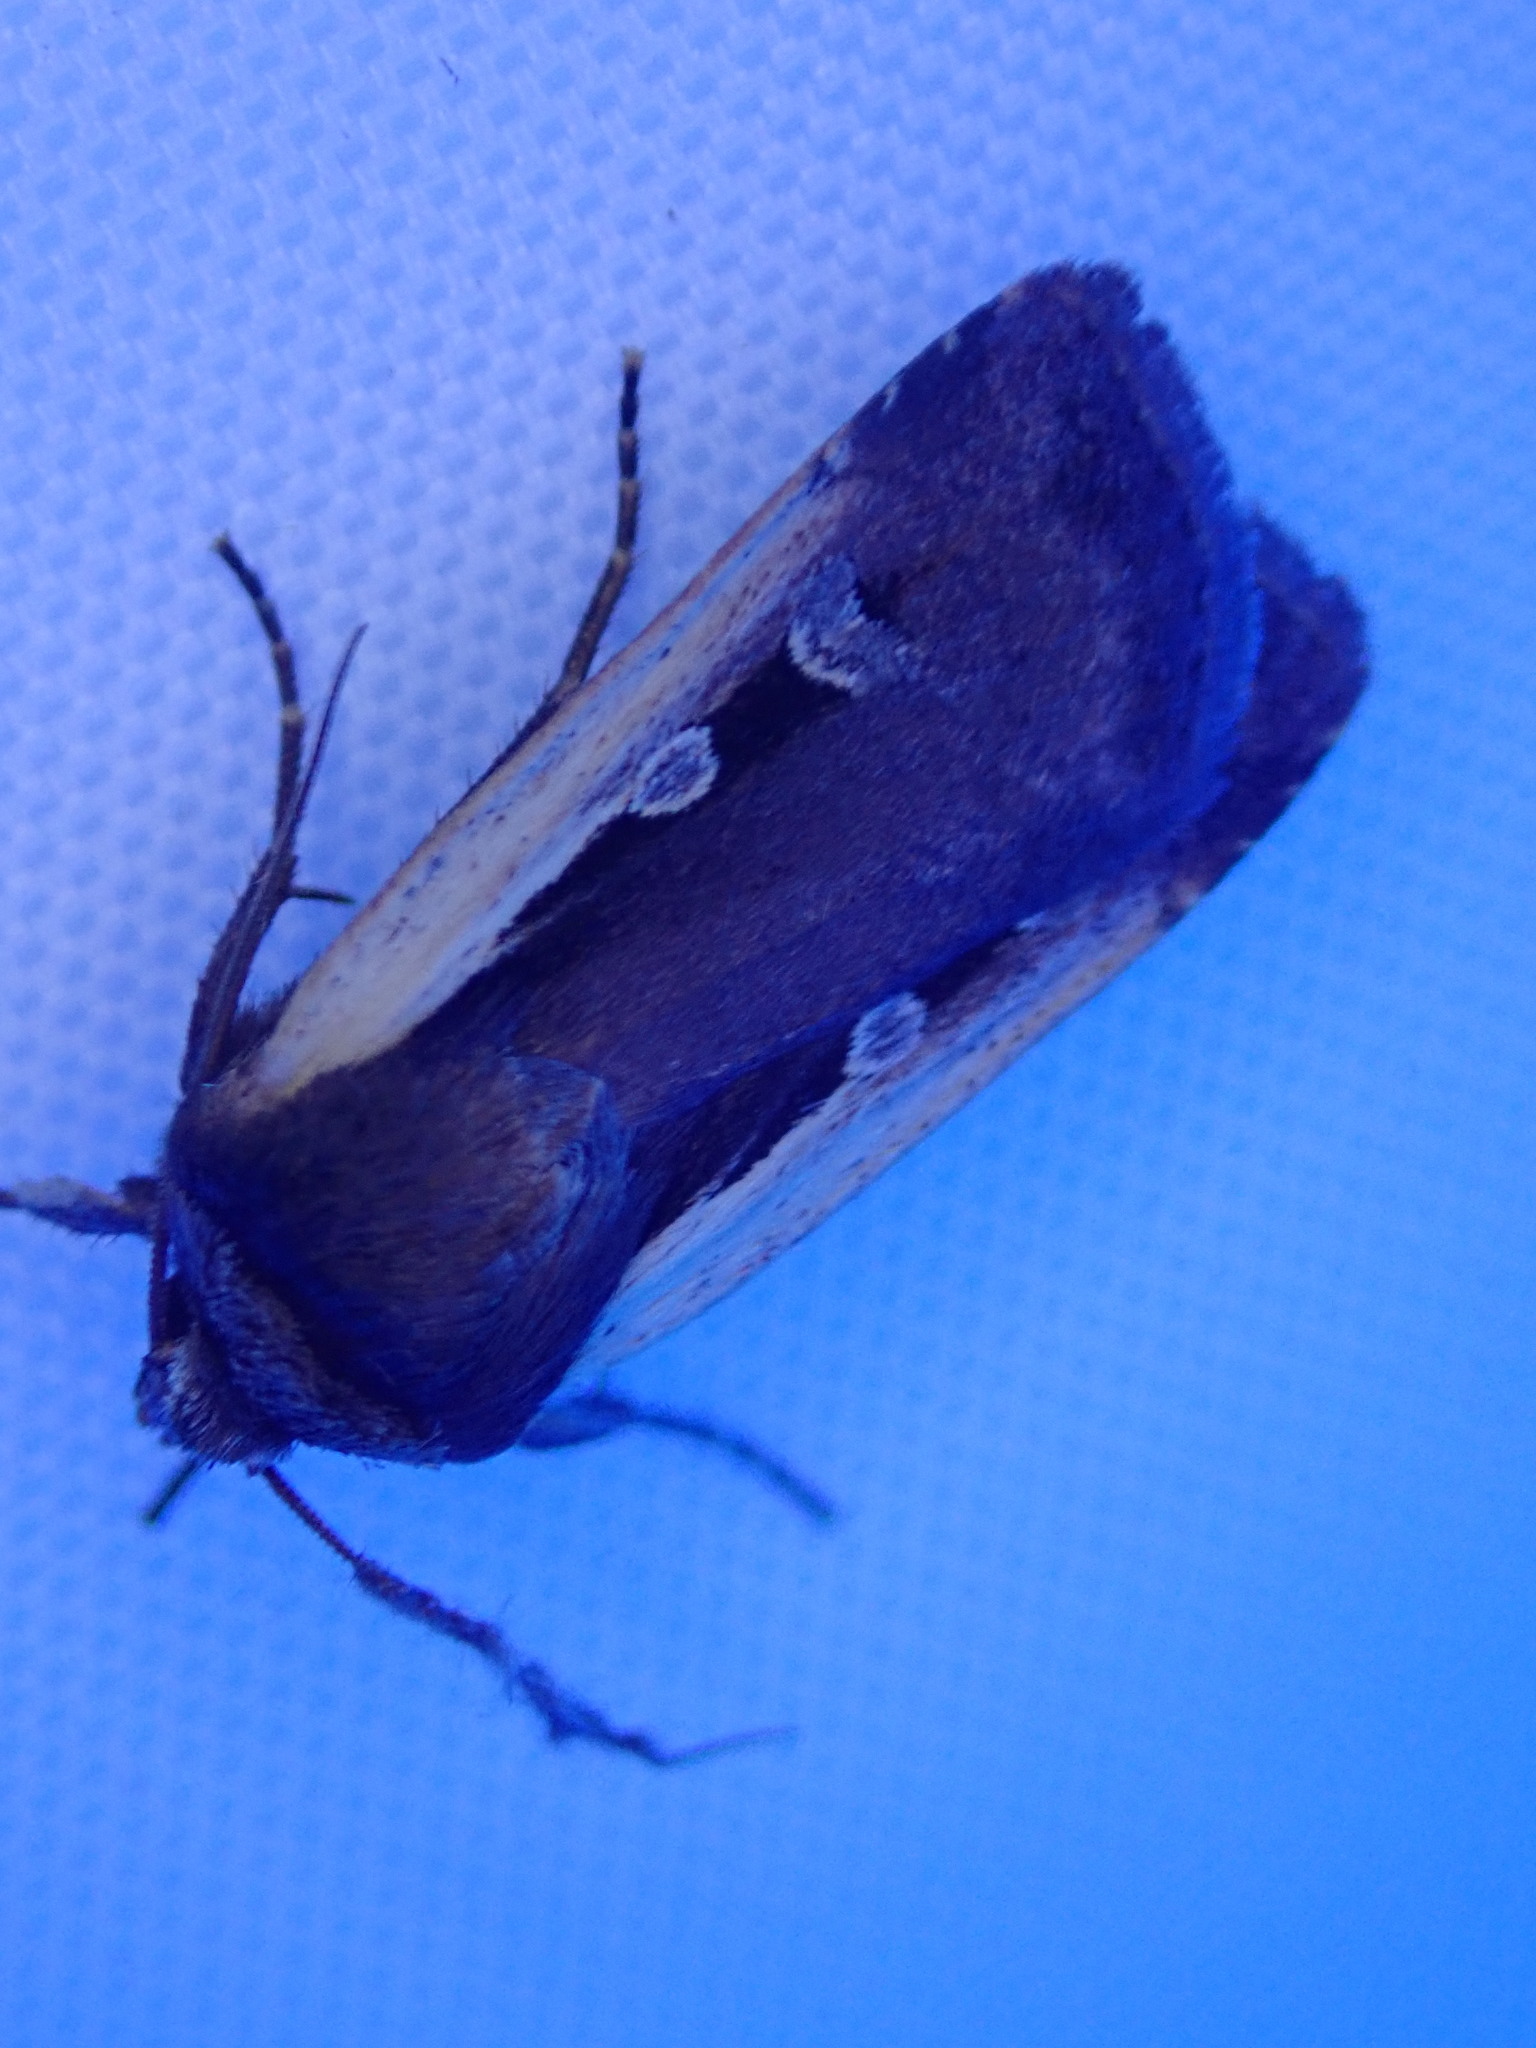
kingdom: Animalia
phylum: Arthropoda
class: Insecta
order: Lepidoptera
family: Noctuidae
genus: Ochropleura
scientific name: Ochropleura plecta
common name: Flame shoulder
